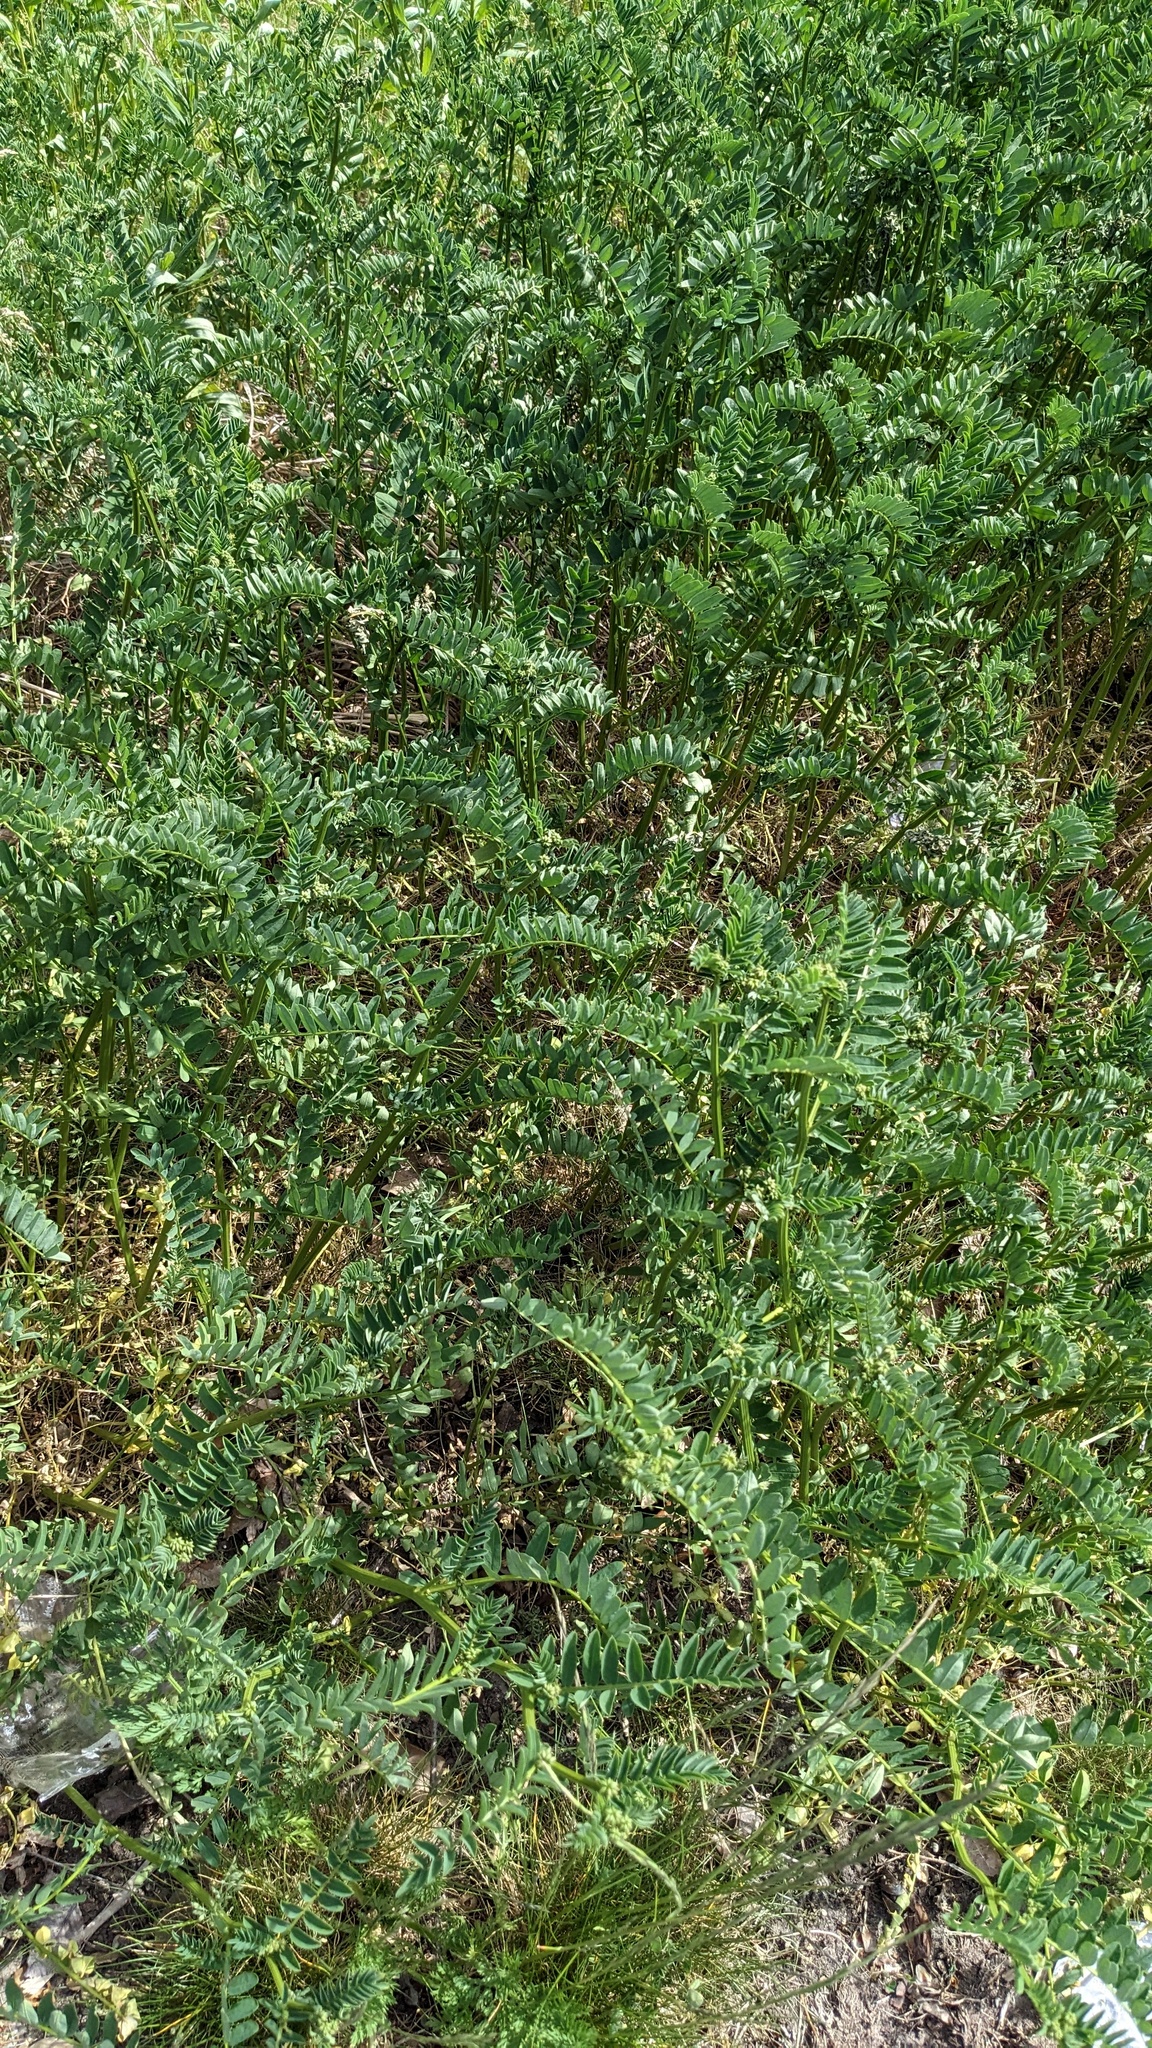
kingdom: Plantae
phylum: Tracheophyta
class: Magnoliopsida
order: Fabales
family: Fabaceae
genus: Coronilla
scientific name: Coronilla varia
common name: Crownvetch
